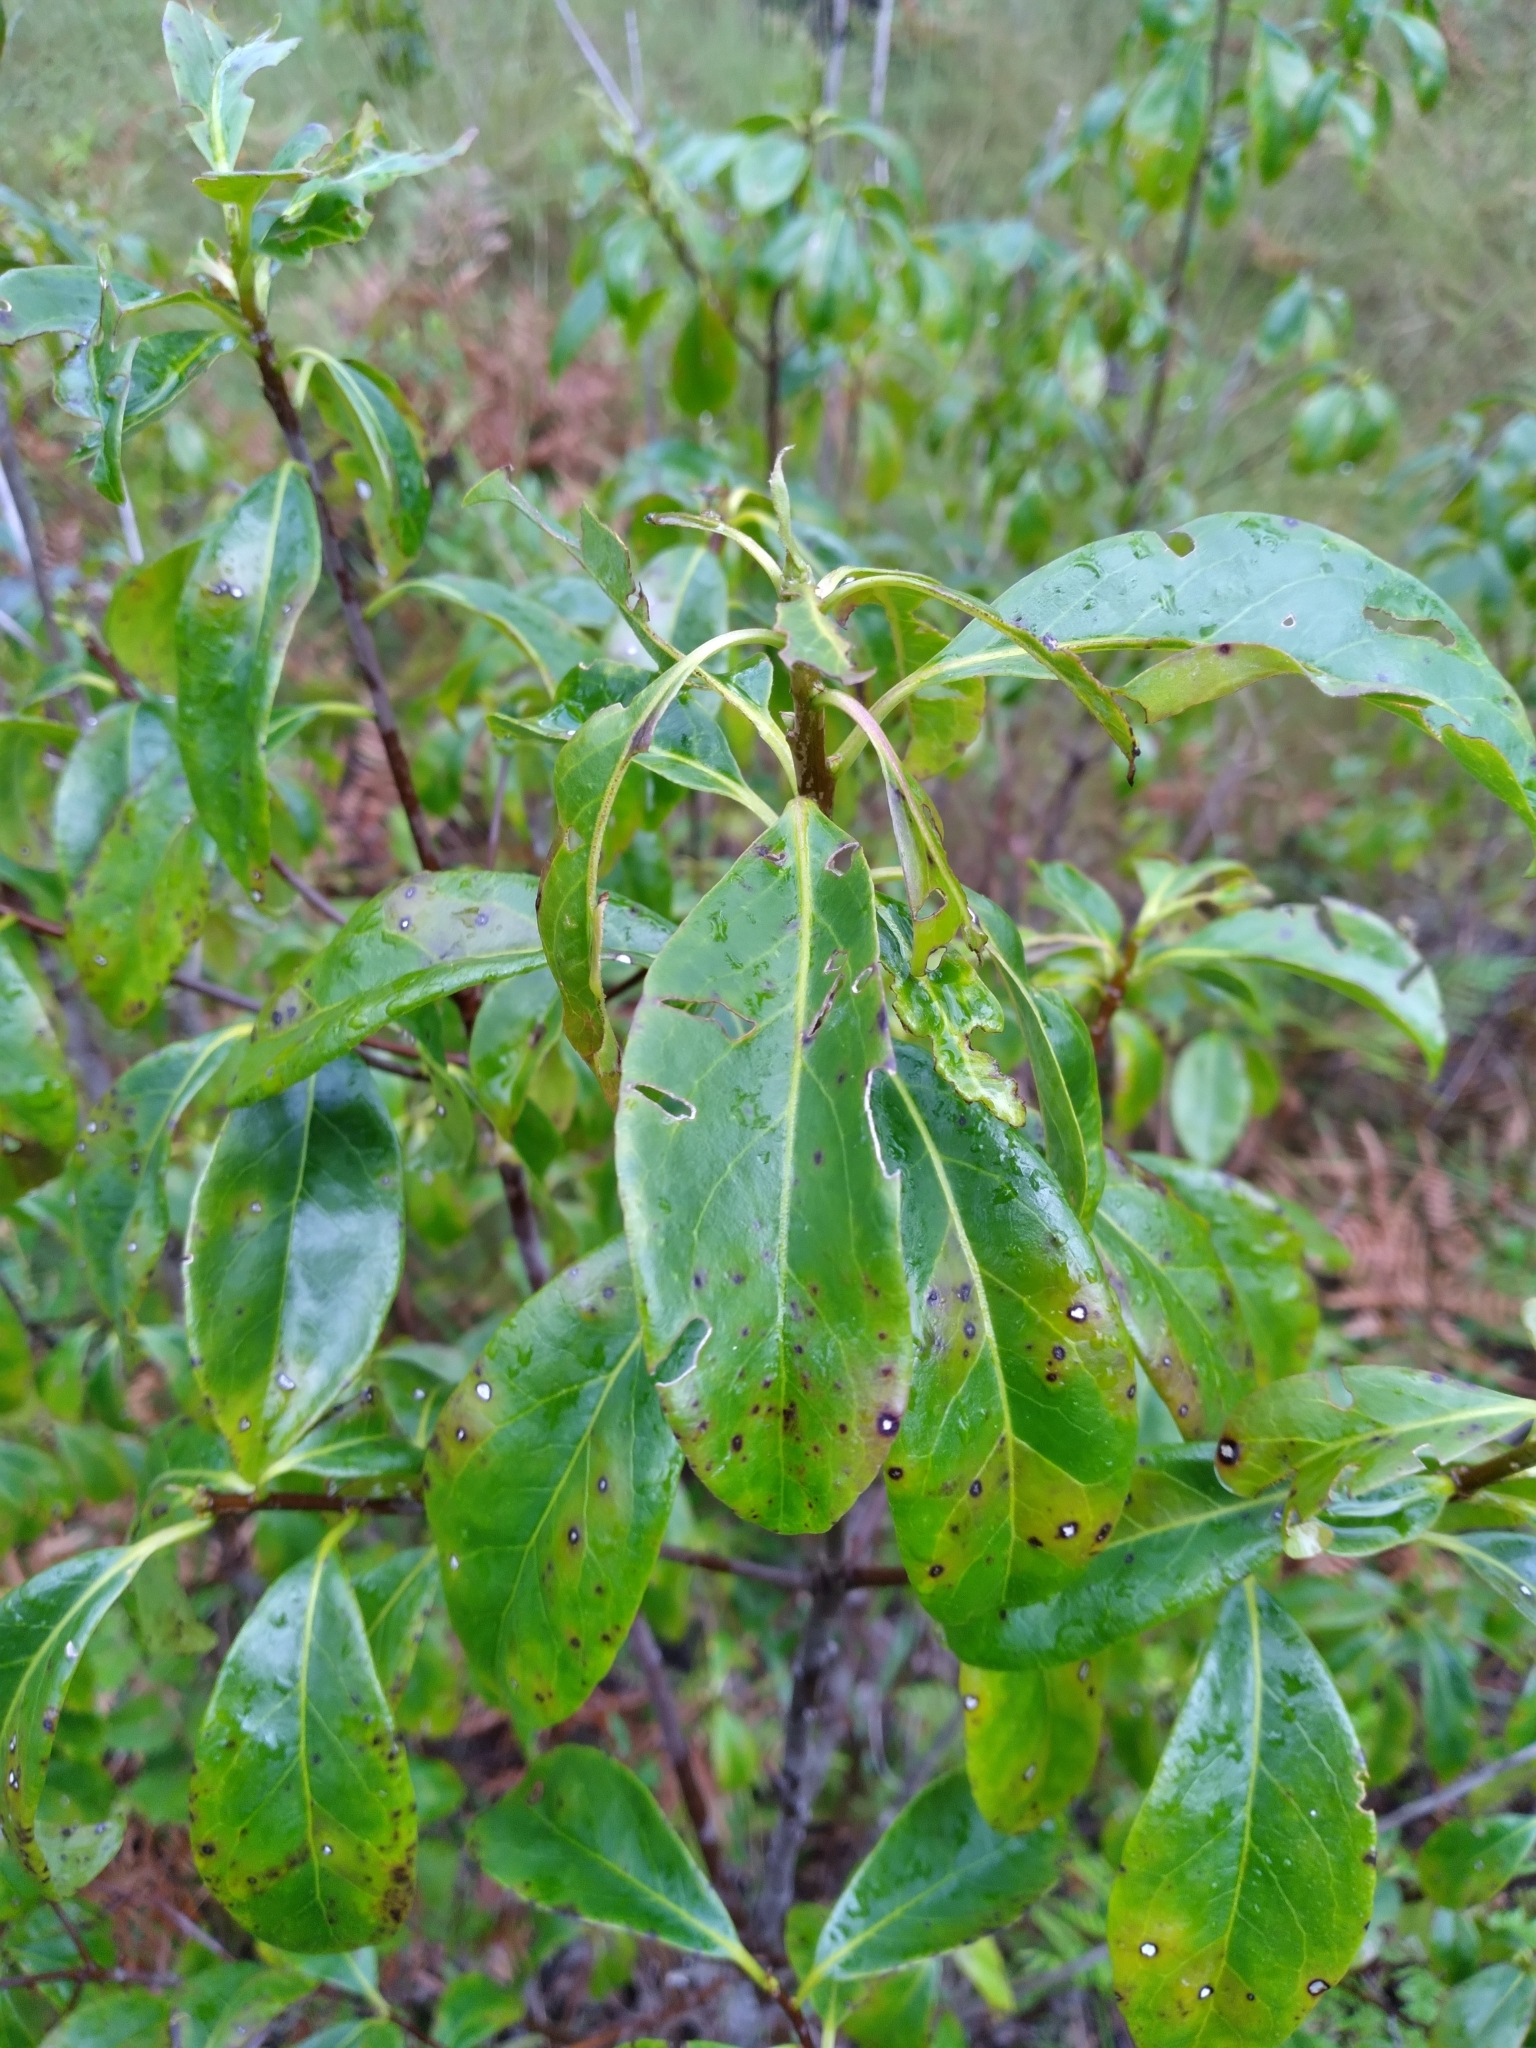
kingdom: Plantae
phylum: Tracheophyta
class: Magnoliopsida
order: Ericales
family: Symplocaceae
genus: Symplocos
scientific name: Symplocos tinctoria
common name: Horse-sugar
